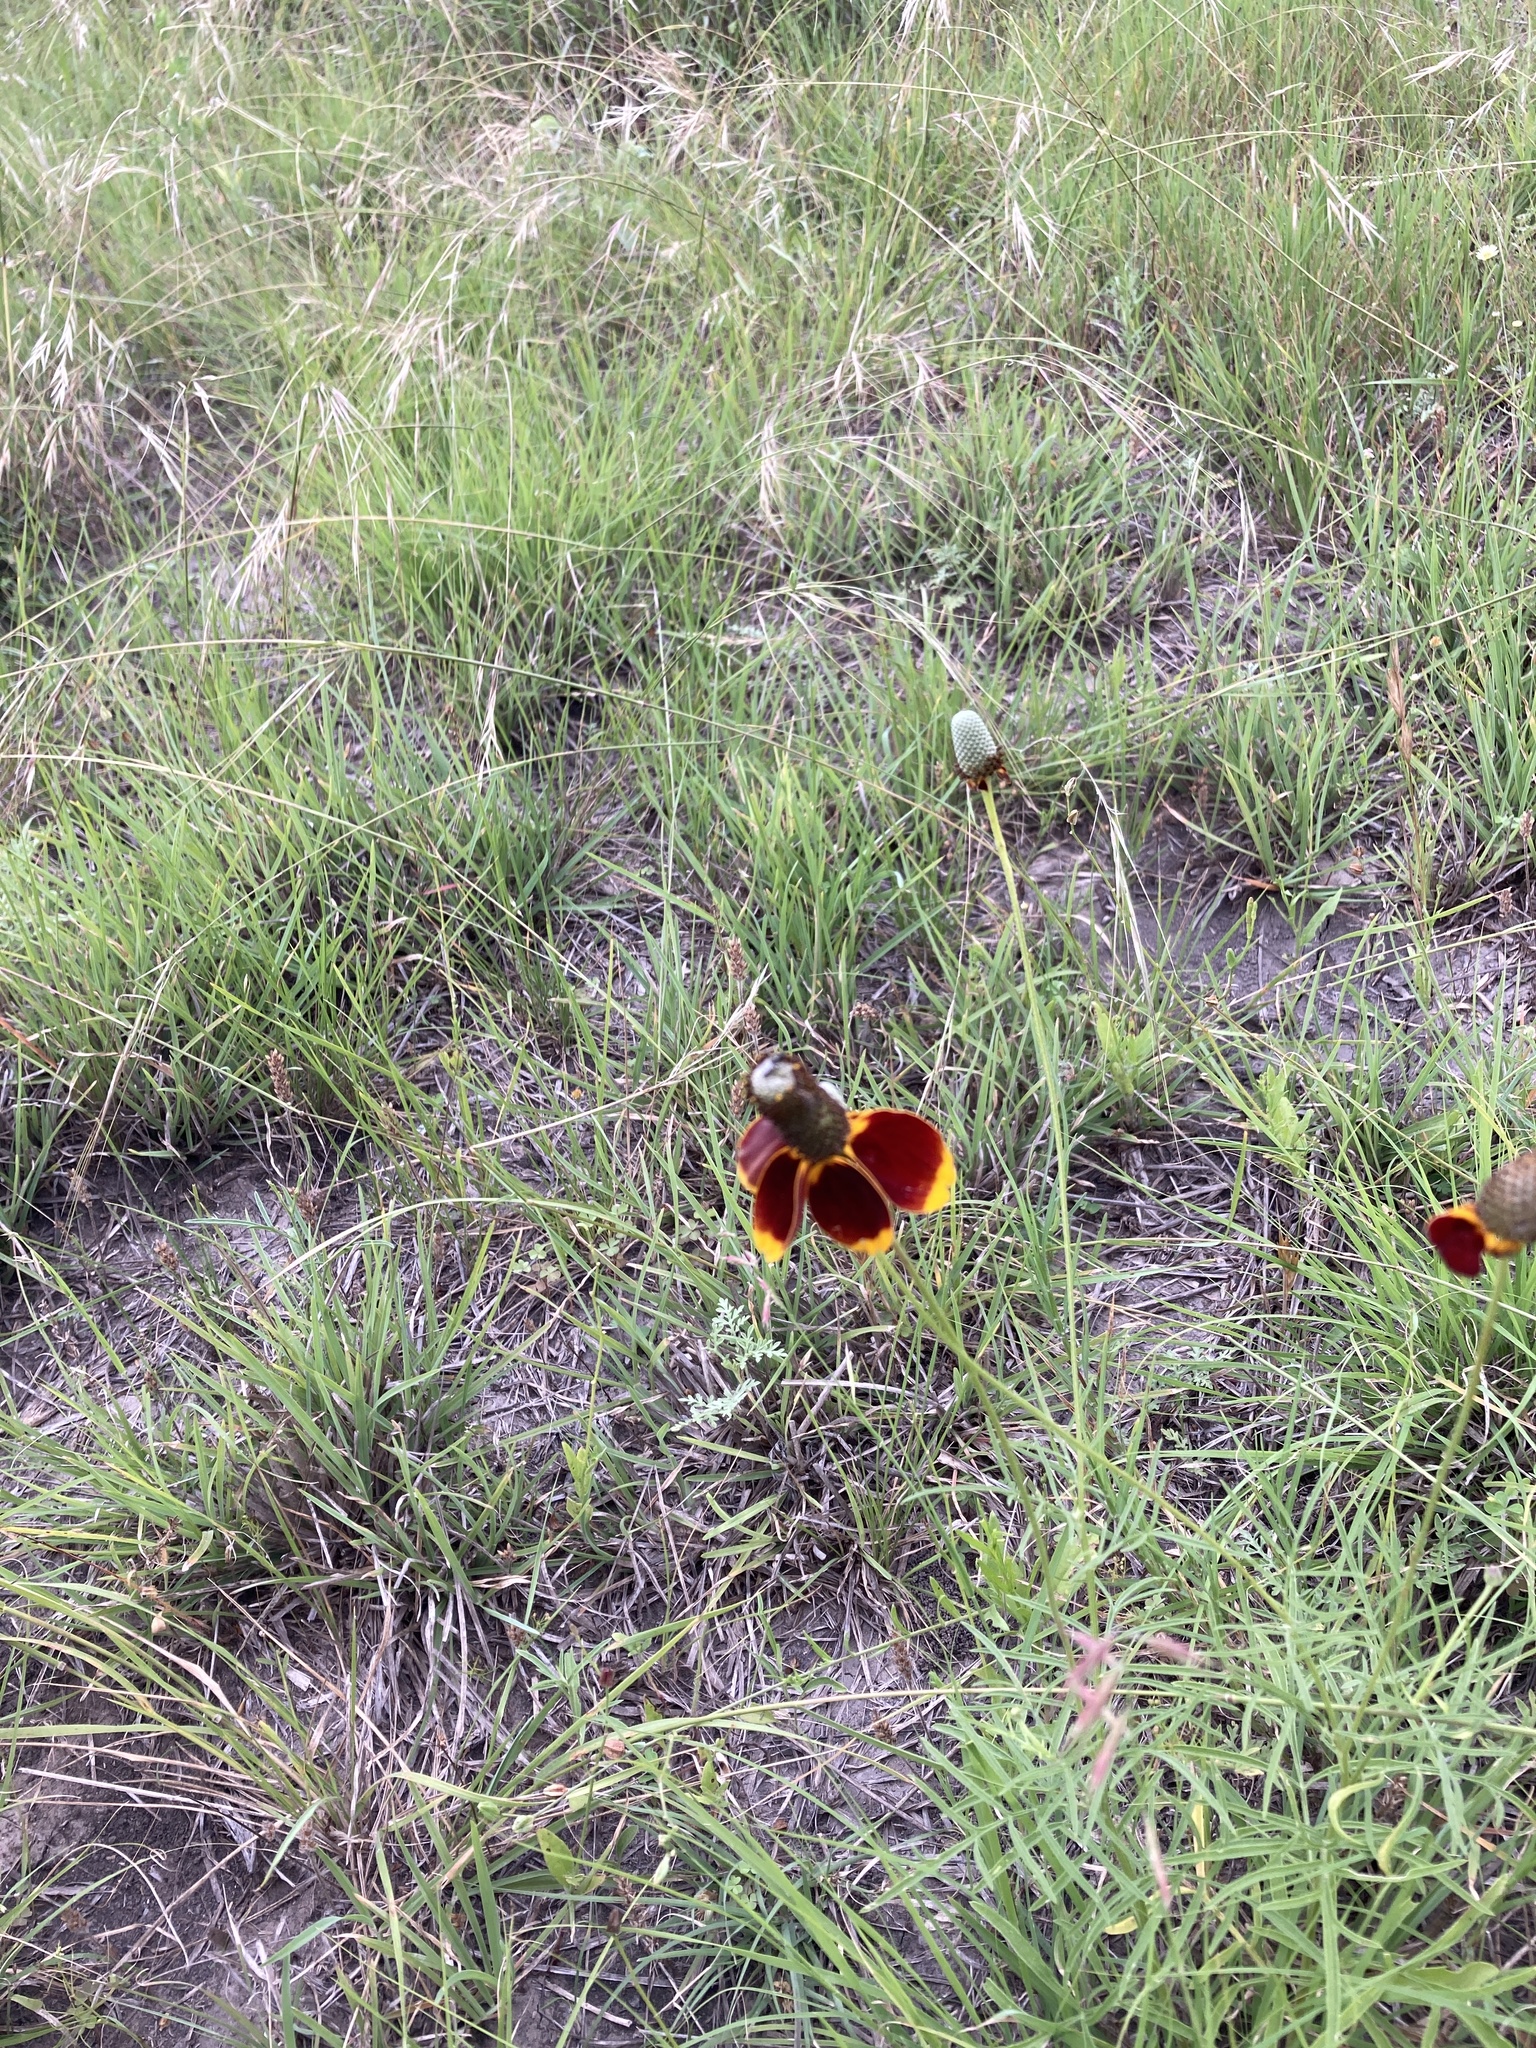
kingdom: Plantae
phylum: Tracheophyta
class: Magnoliopsida
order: Asterales
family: Asteraceae
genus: Ratibida
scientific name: Ratibida columnifera
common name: Prairie coneflower
